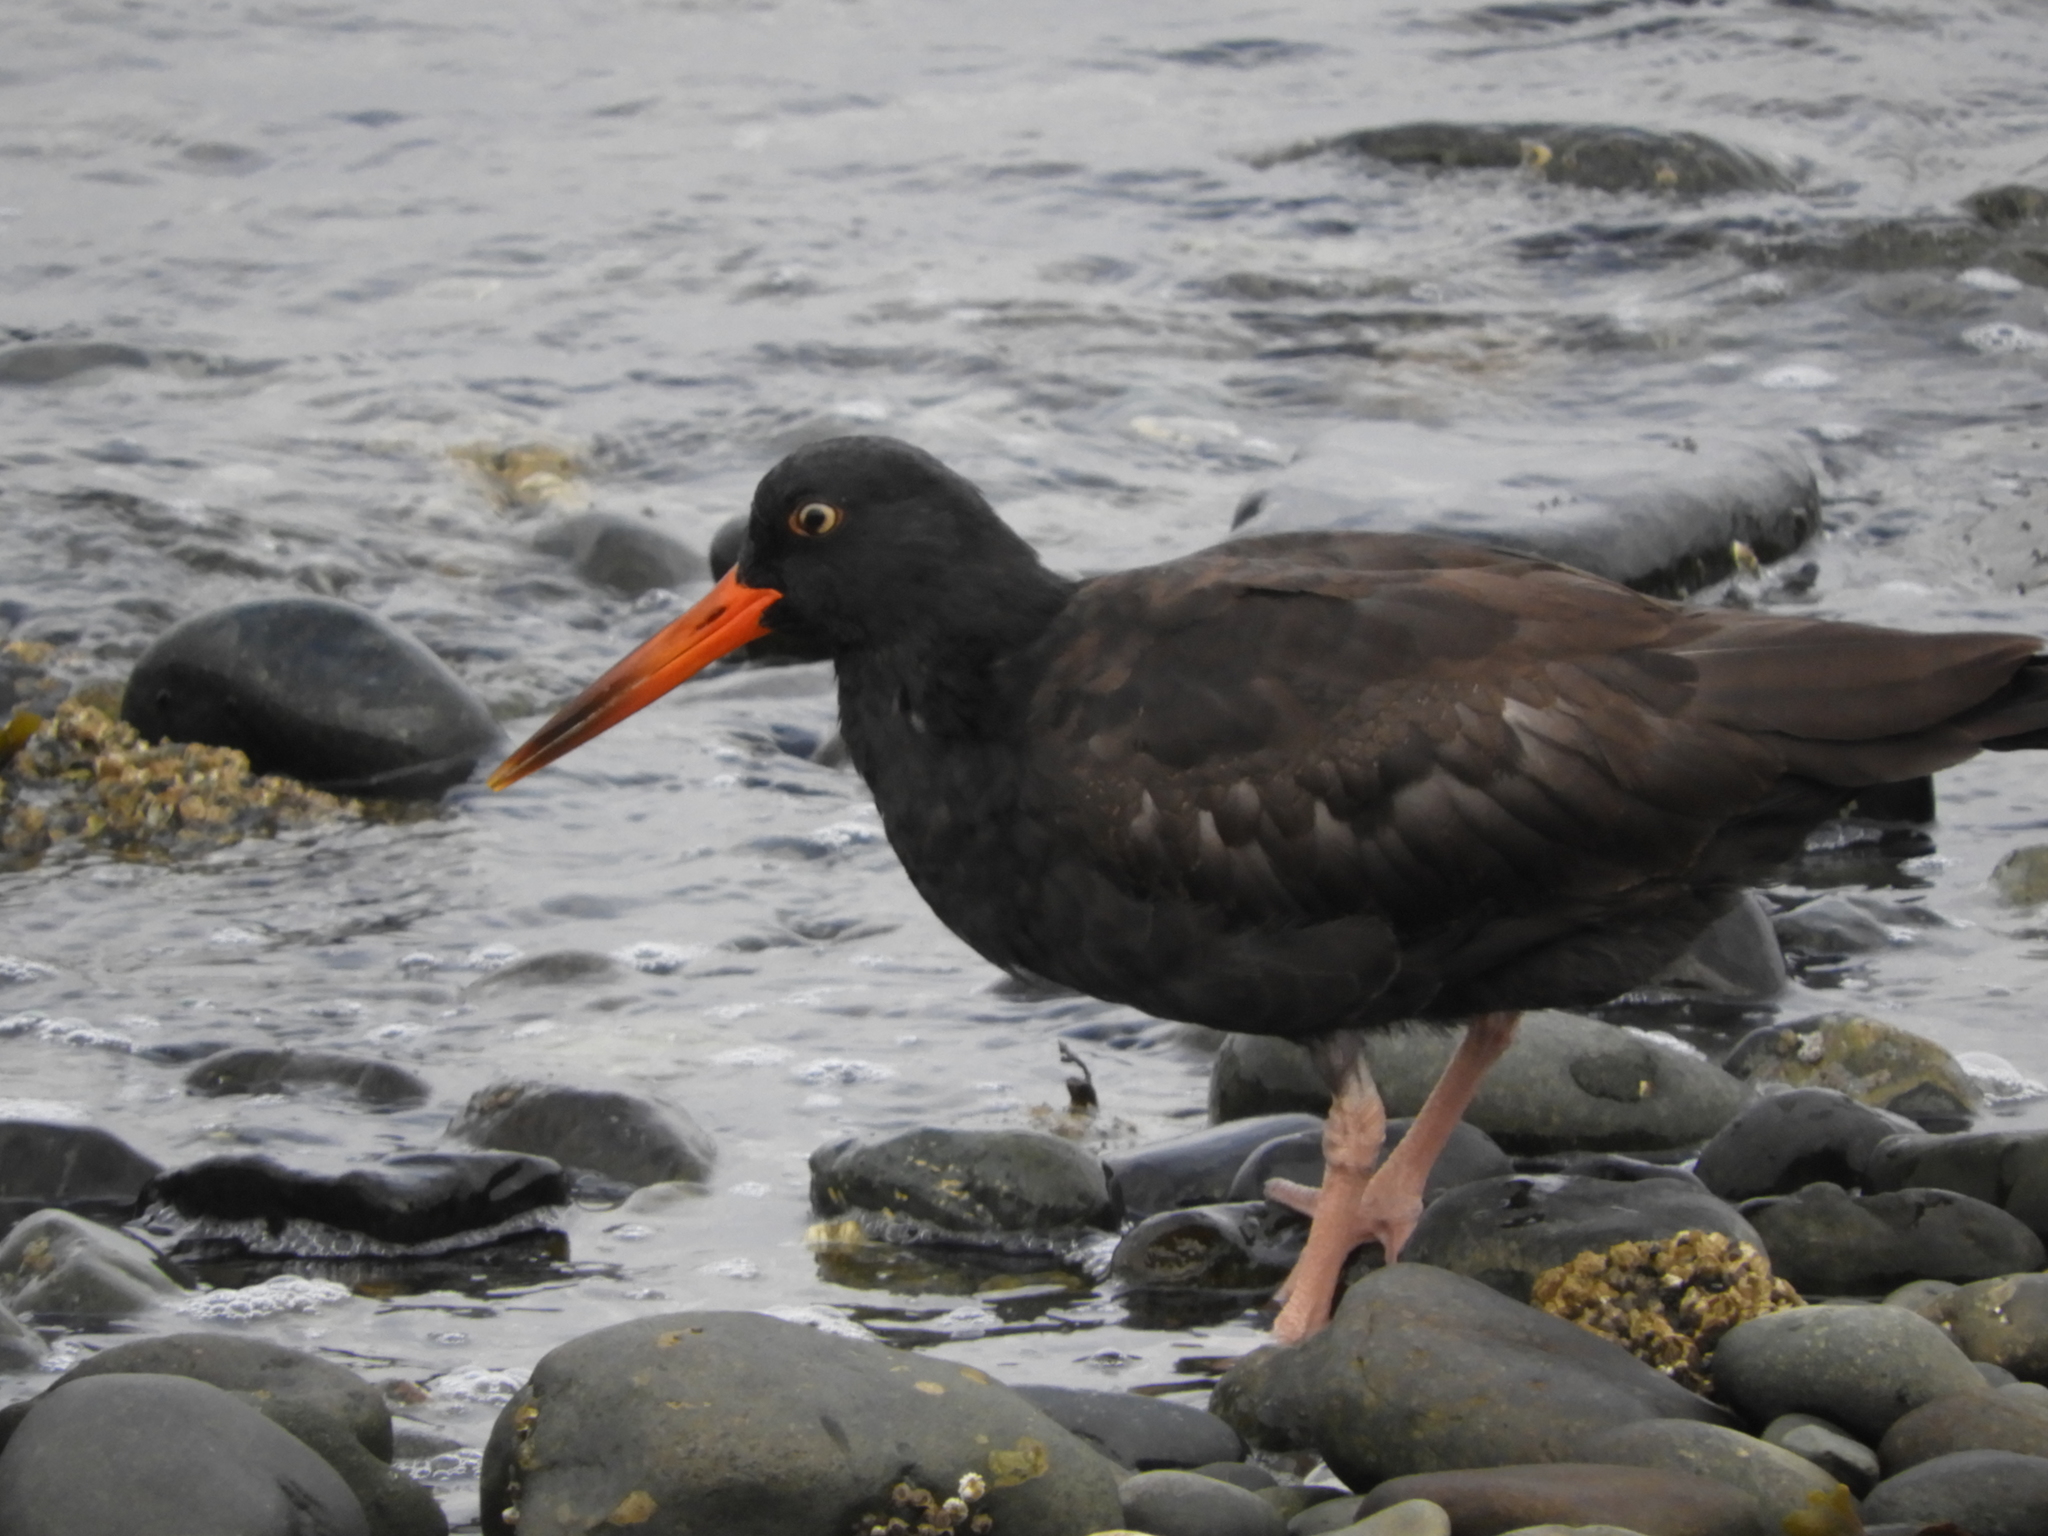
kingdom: Animalia
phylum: Chordata
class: Aves
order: Charadriiformes
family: Haematopodidae
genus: Haematopus
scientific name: Haematopus bachmani
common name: Black oystercatcher
